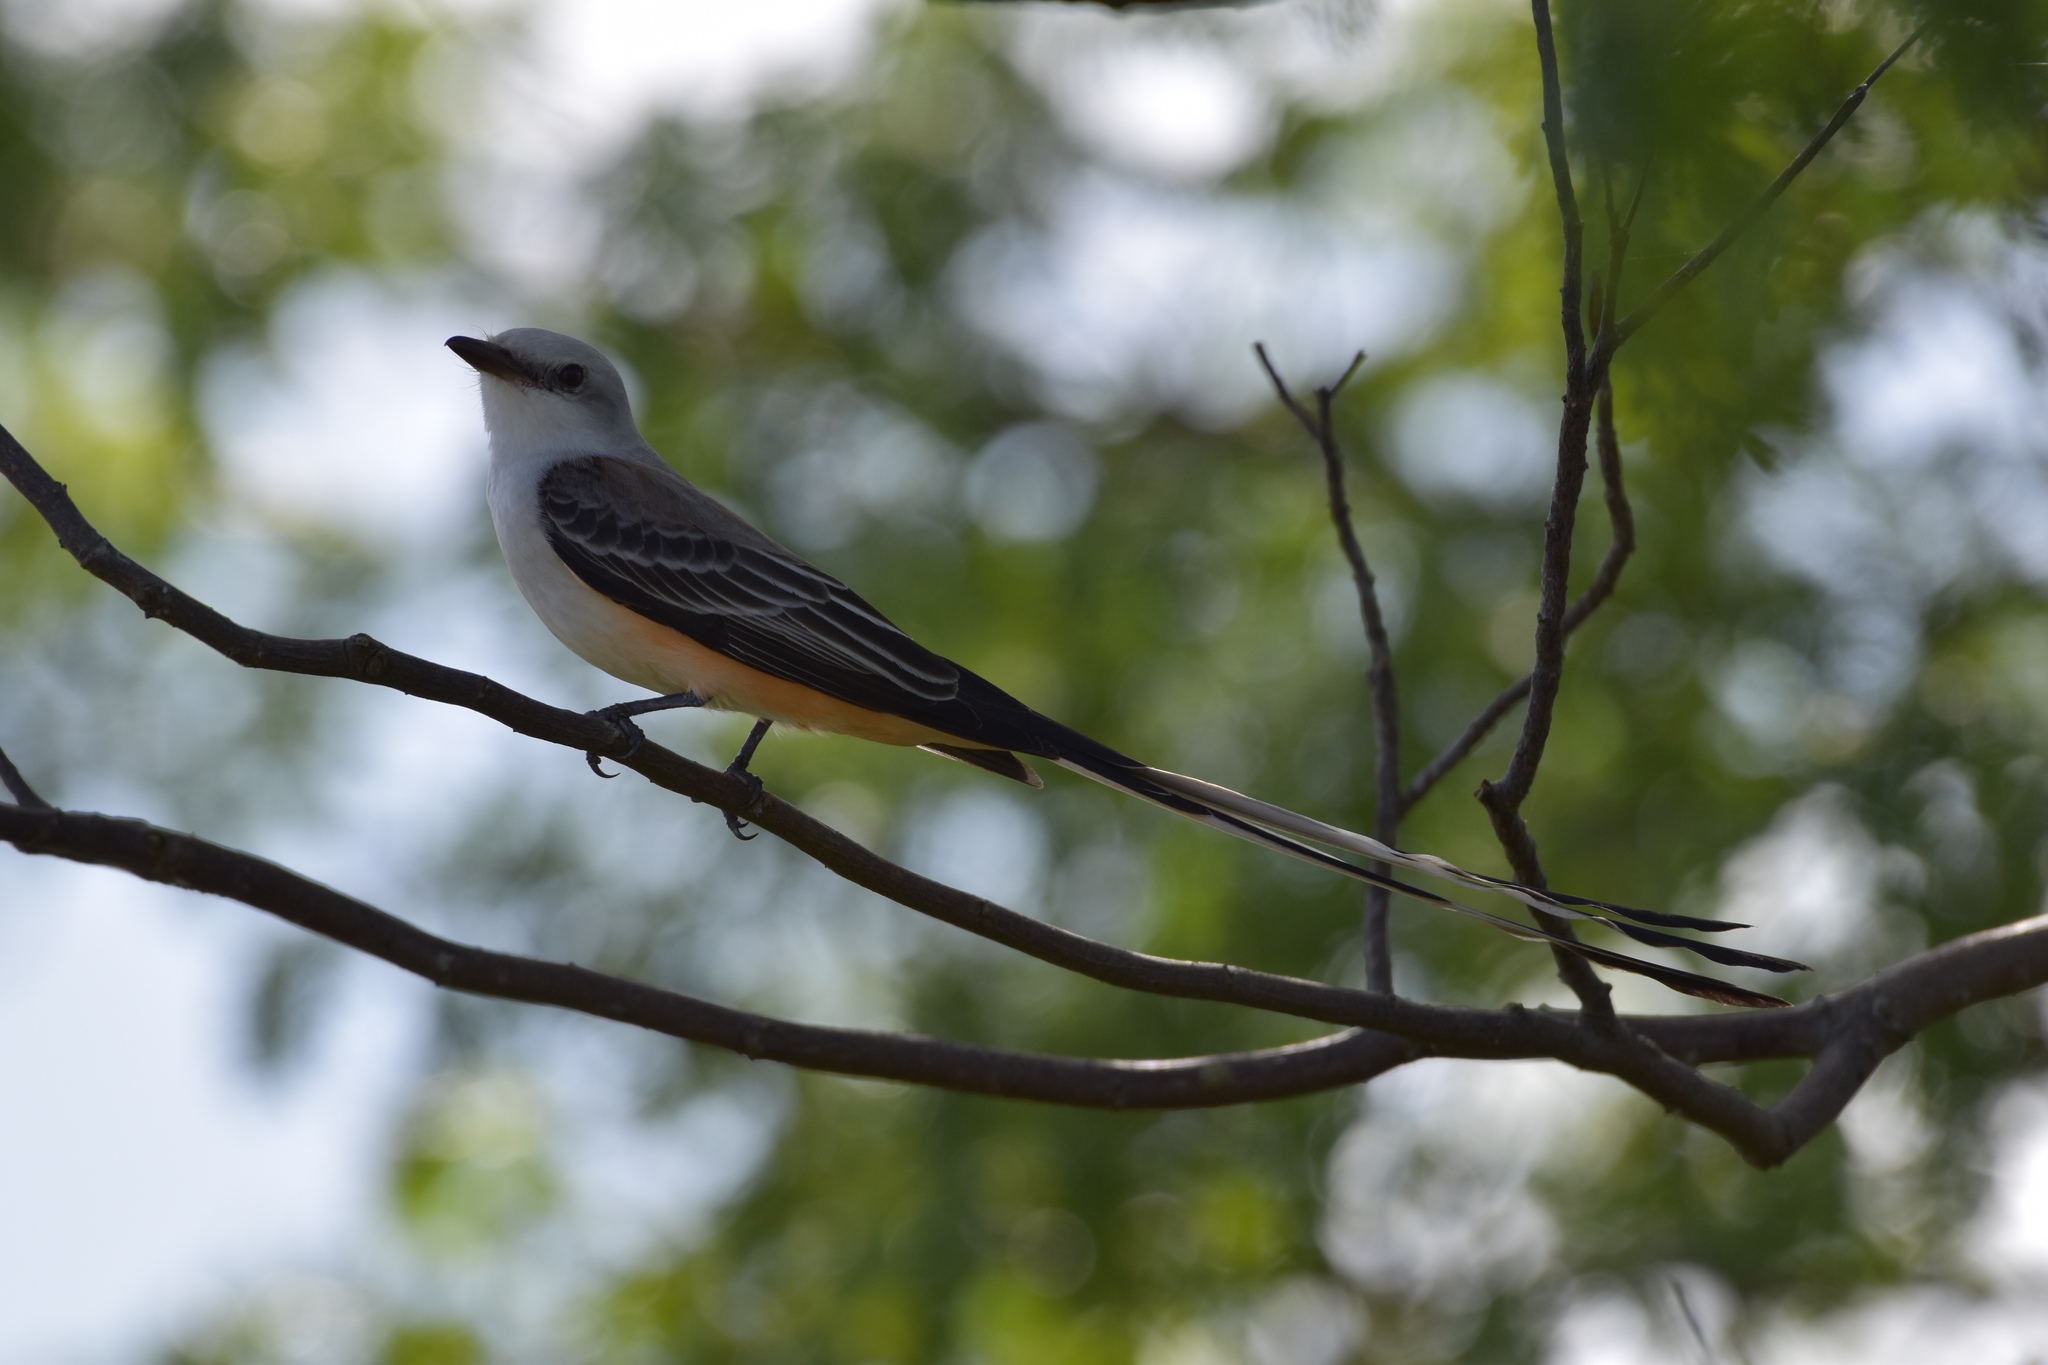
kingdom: Animalia
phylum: Chordata
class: Aves
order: Passeriformes
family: Tyrannidae
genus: Tyrannus
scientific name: Tyrannus forficatus
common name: Scissor-tailed flycatcher
